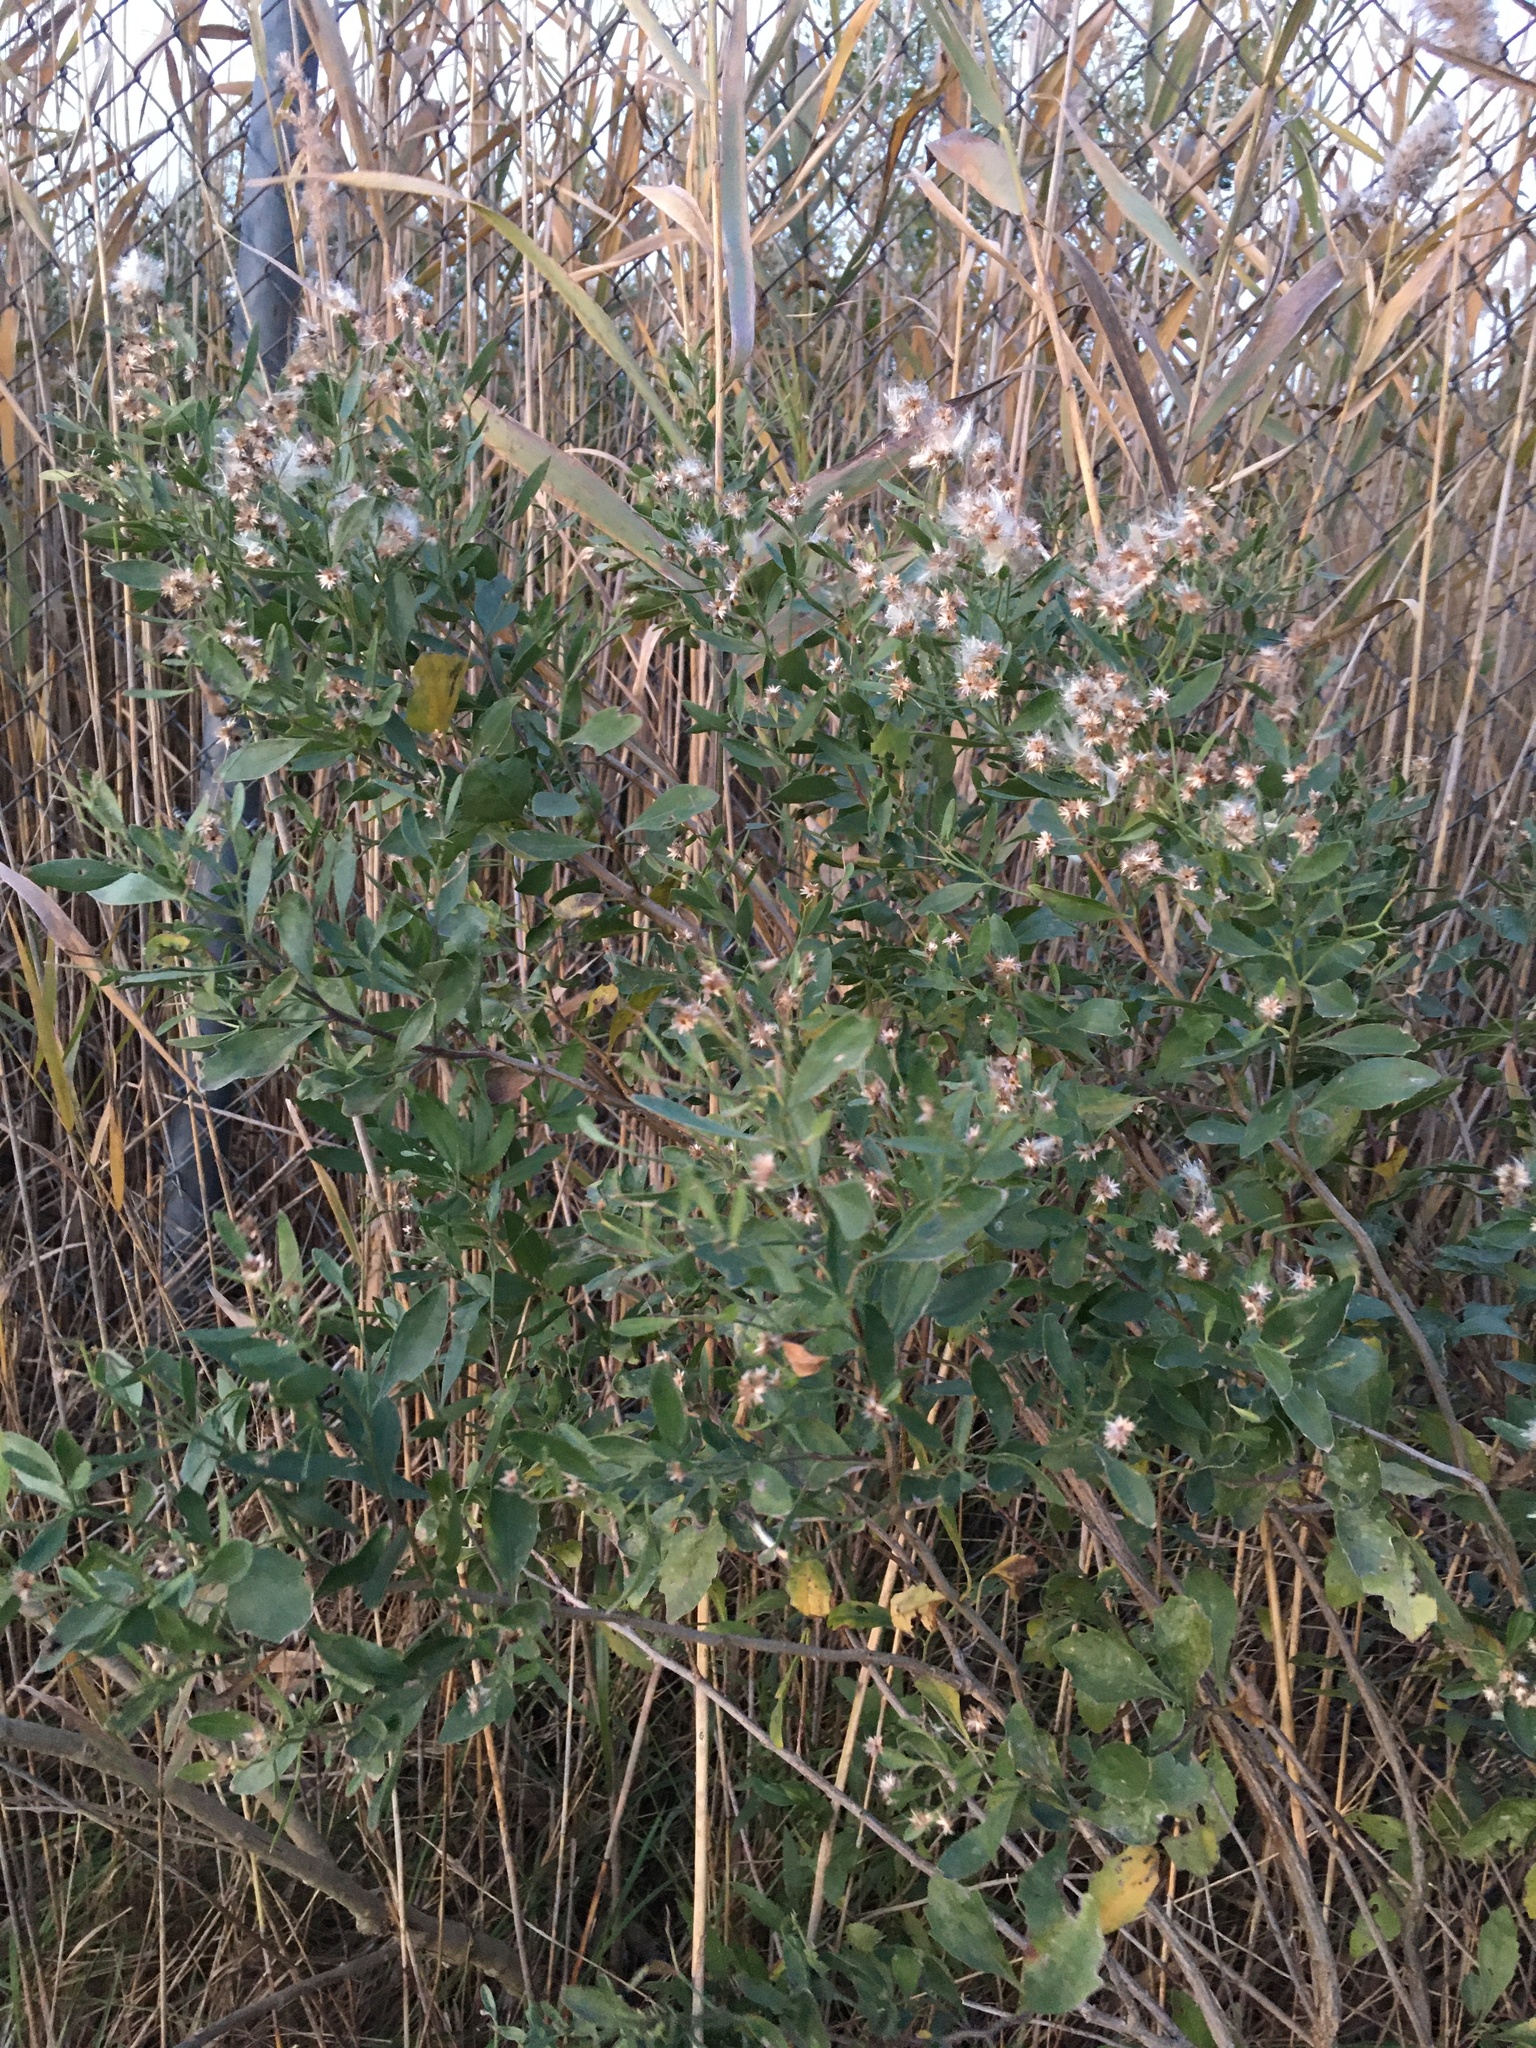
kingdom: Plantae
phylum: Tracheophyta
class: Magnoliopsida
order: Asterales
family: Asteraceae
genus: Baccharis
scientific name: Baccharis halimifolia
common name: Eastern baccharis
